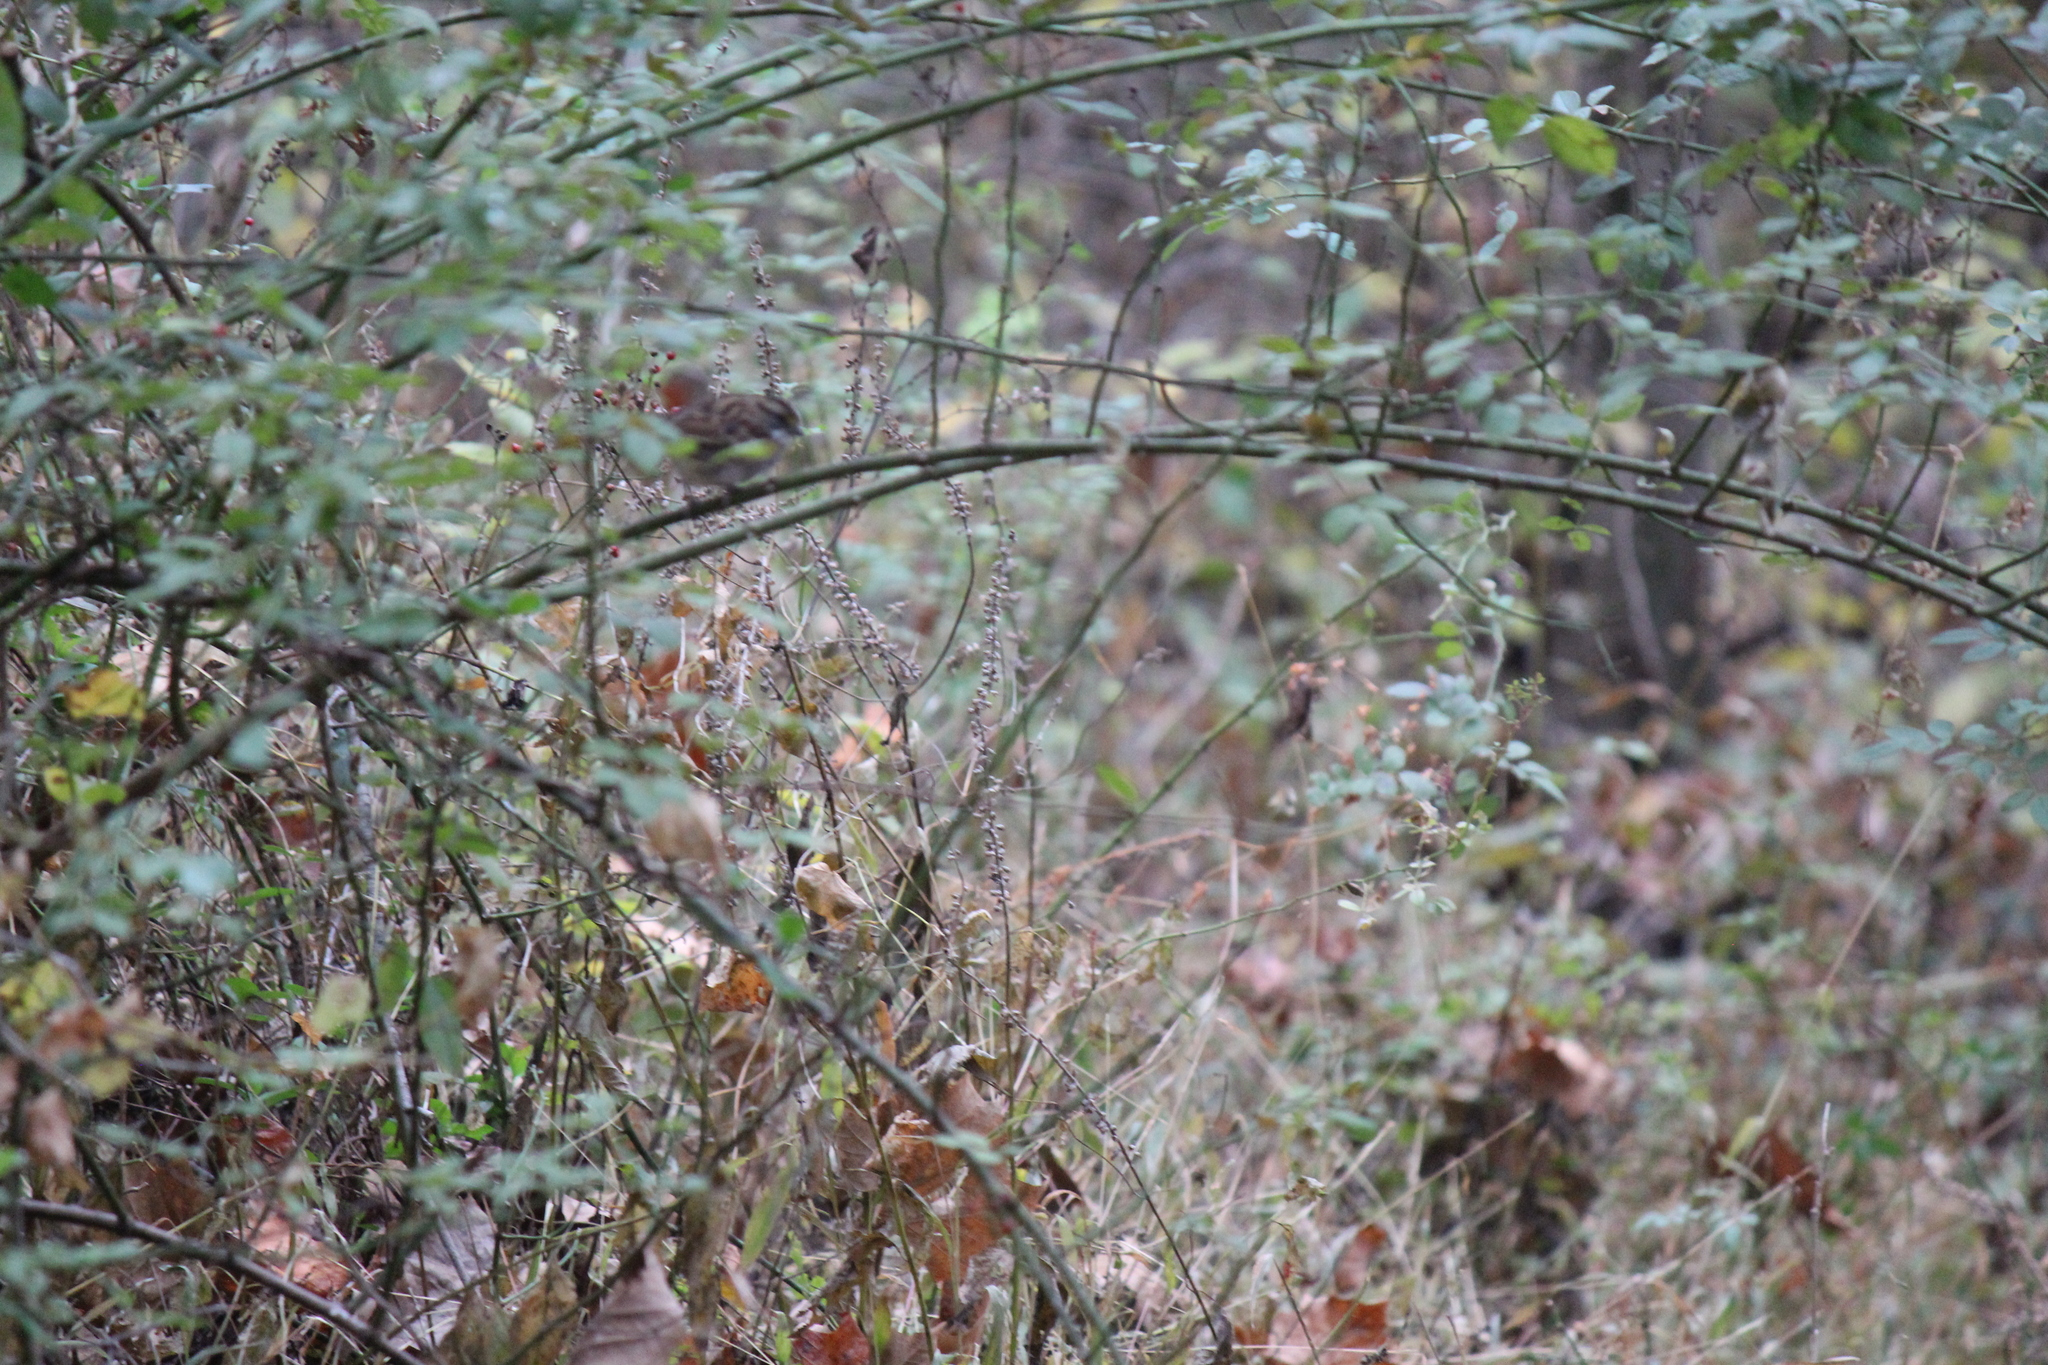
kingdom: Animalia
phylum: Chordata
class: Aves
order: Passeriformes
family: Passerellidae
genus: Zonotrichia
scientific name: Zonotrichia albicollis
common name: White-throated sparrow
